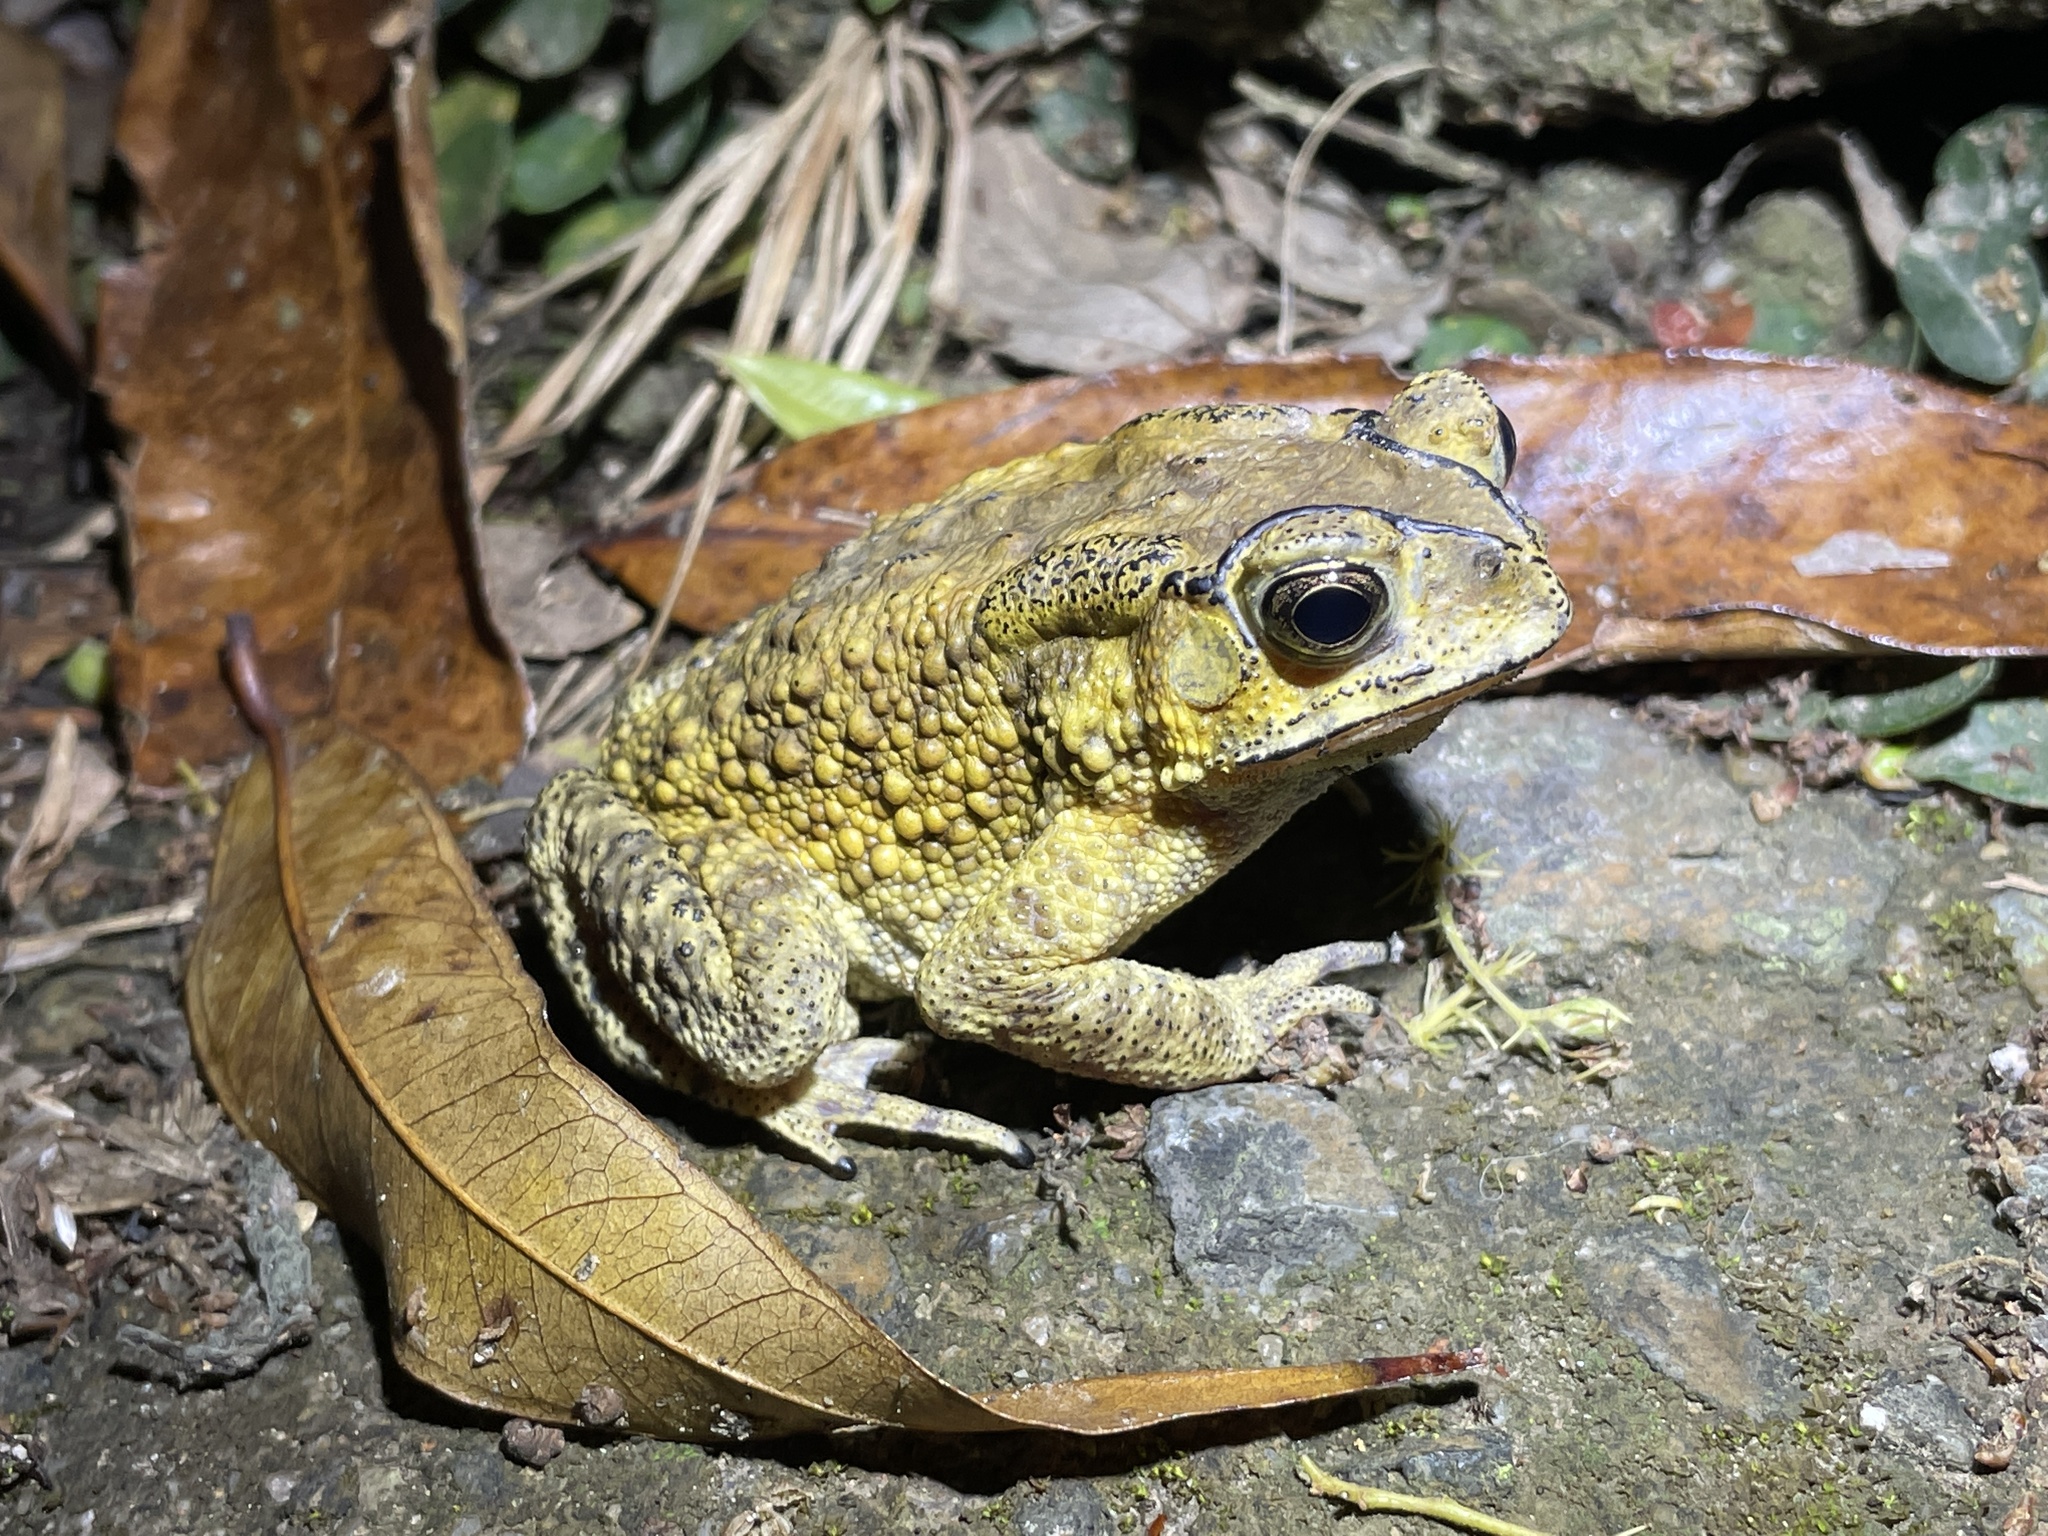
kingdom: Animalia
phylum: Chordata
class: Amphibia
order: Anura
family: Bufonidae
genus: Duttaphrynus
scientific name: Duttaphrynus melanostictus
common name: Common sunda toad
